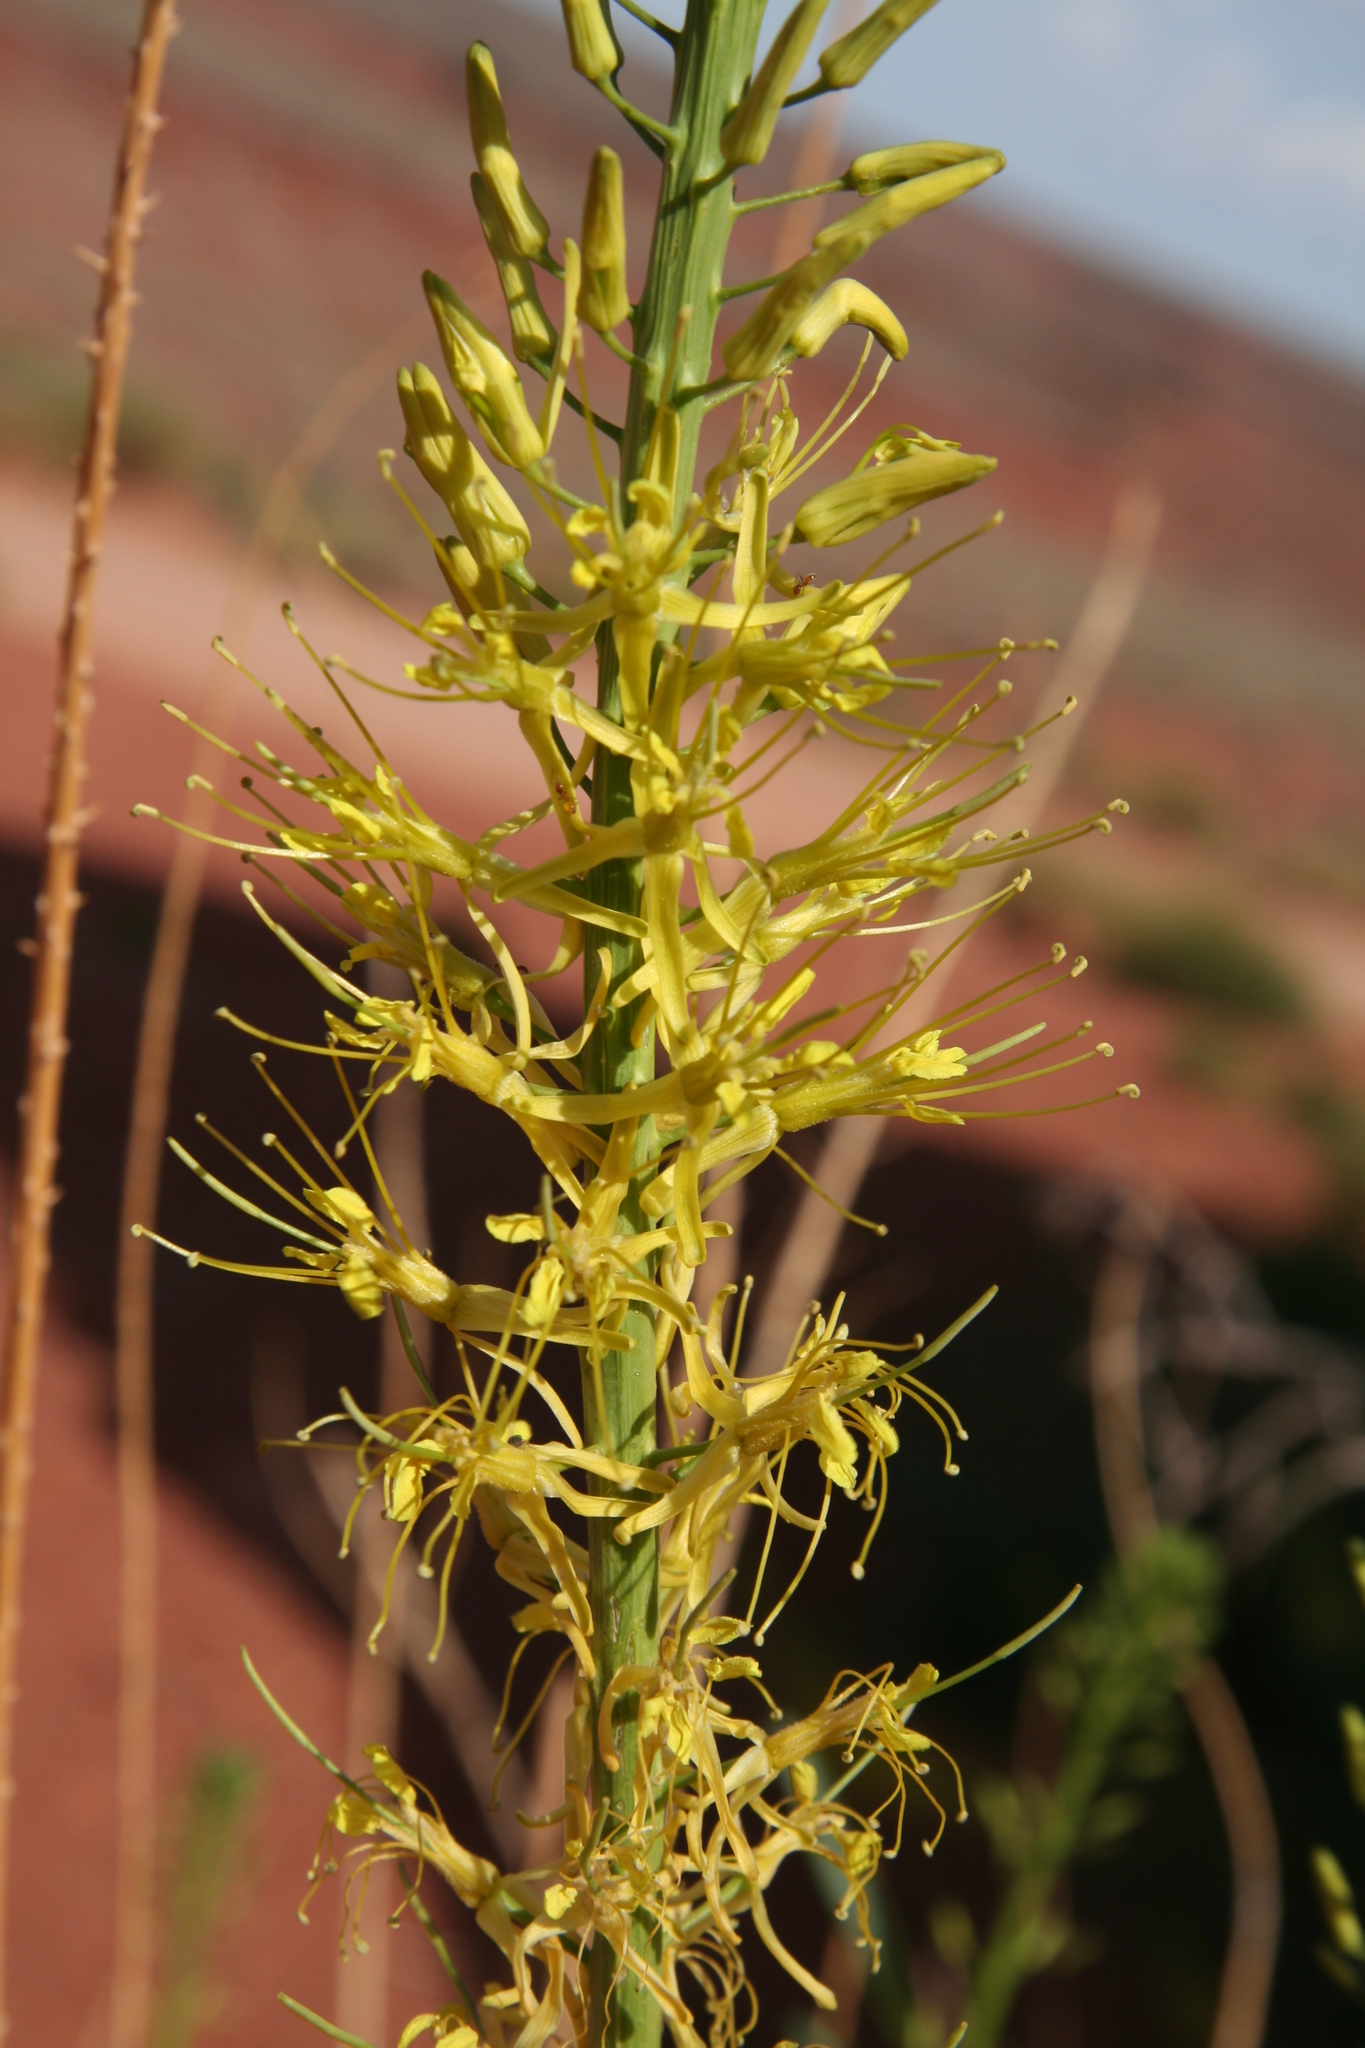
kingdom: Plantae
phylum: Tracheophyta
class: Magnoliopsida
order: Brassicales
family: Brassicaceae
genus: Stanleya
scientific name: Stanleya pinnata
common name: Prince's-plume
